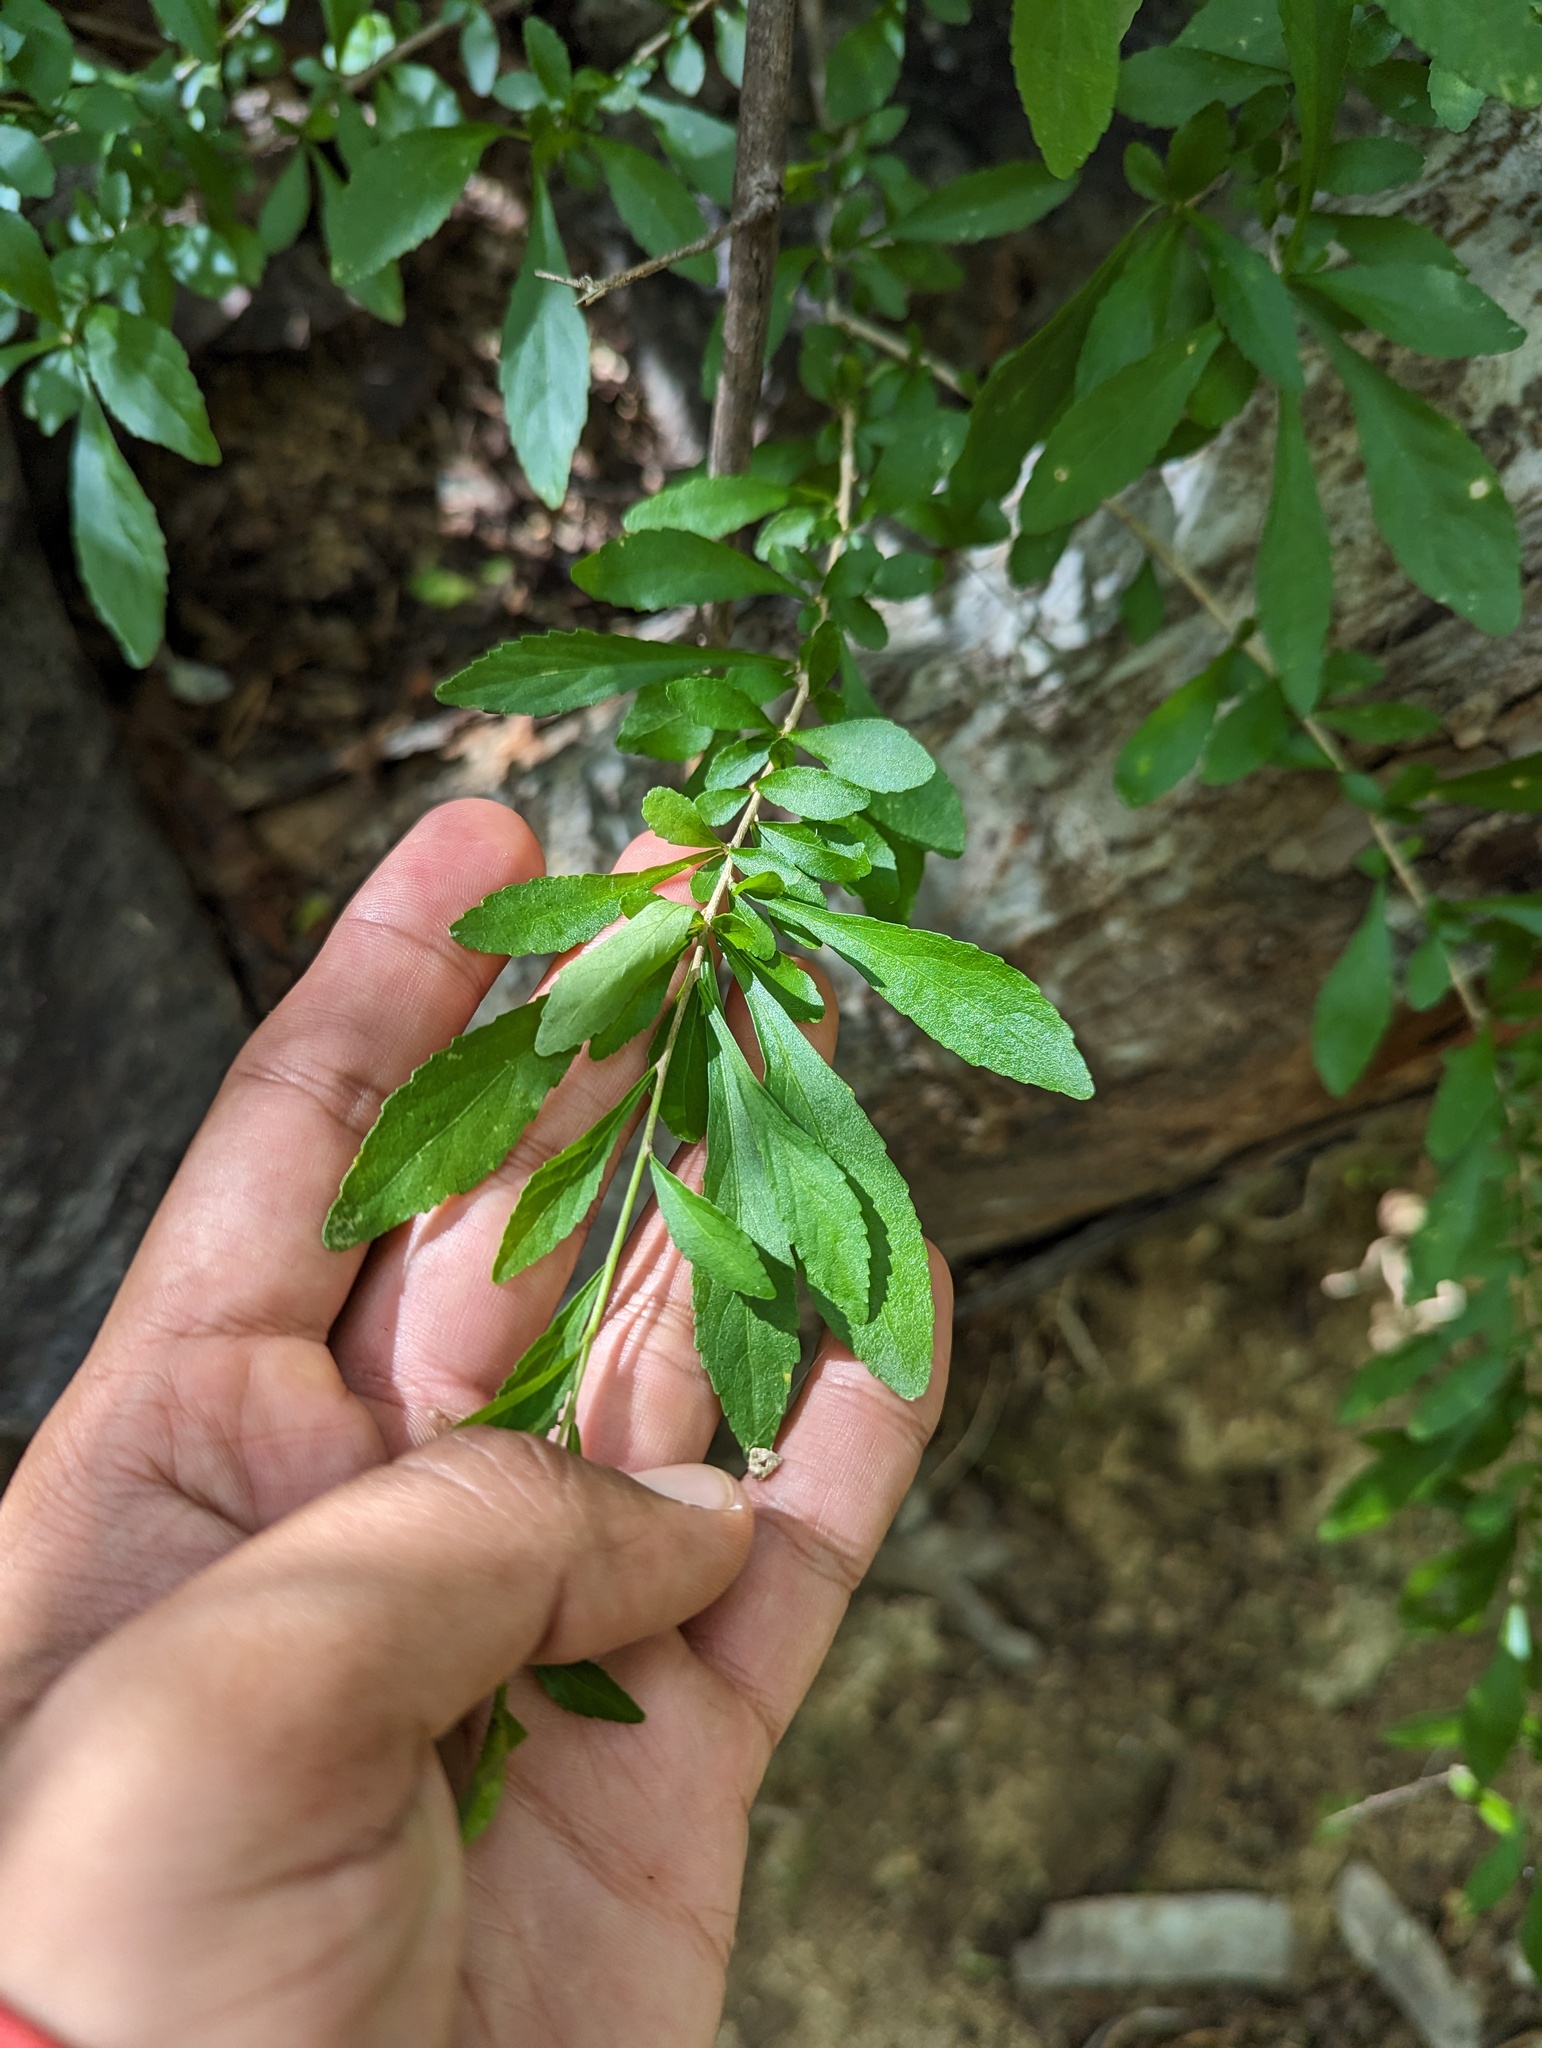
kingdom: Plantae
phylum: Tracheophyta
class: Magnoliopsida
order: Malpighiales
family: Violaceae
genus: Ixchelia
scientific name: Ixchelia mexicana
